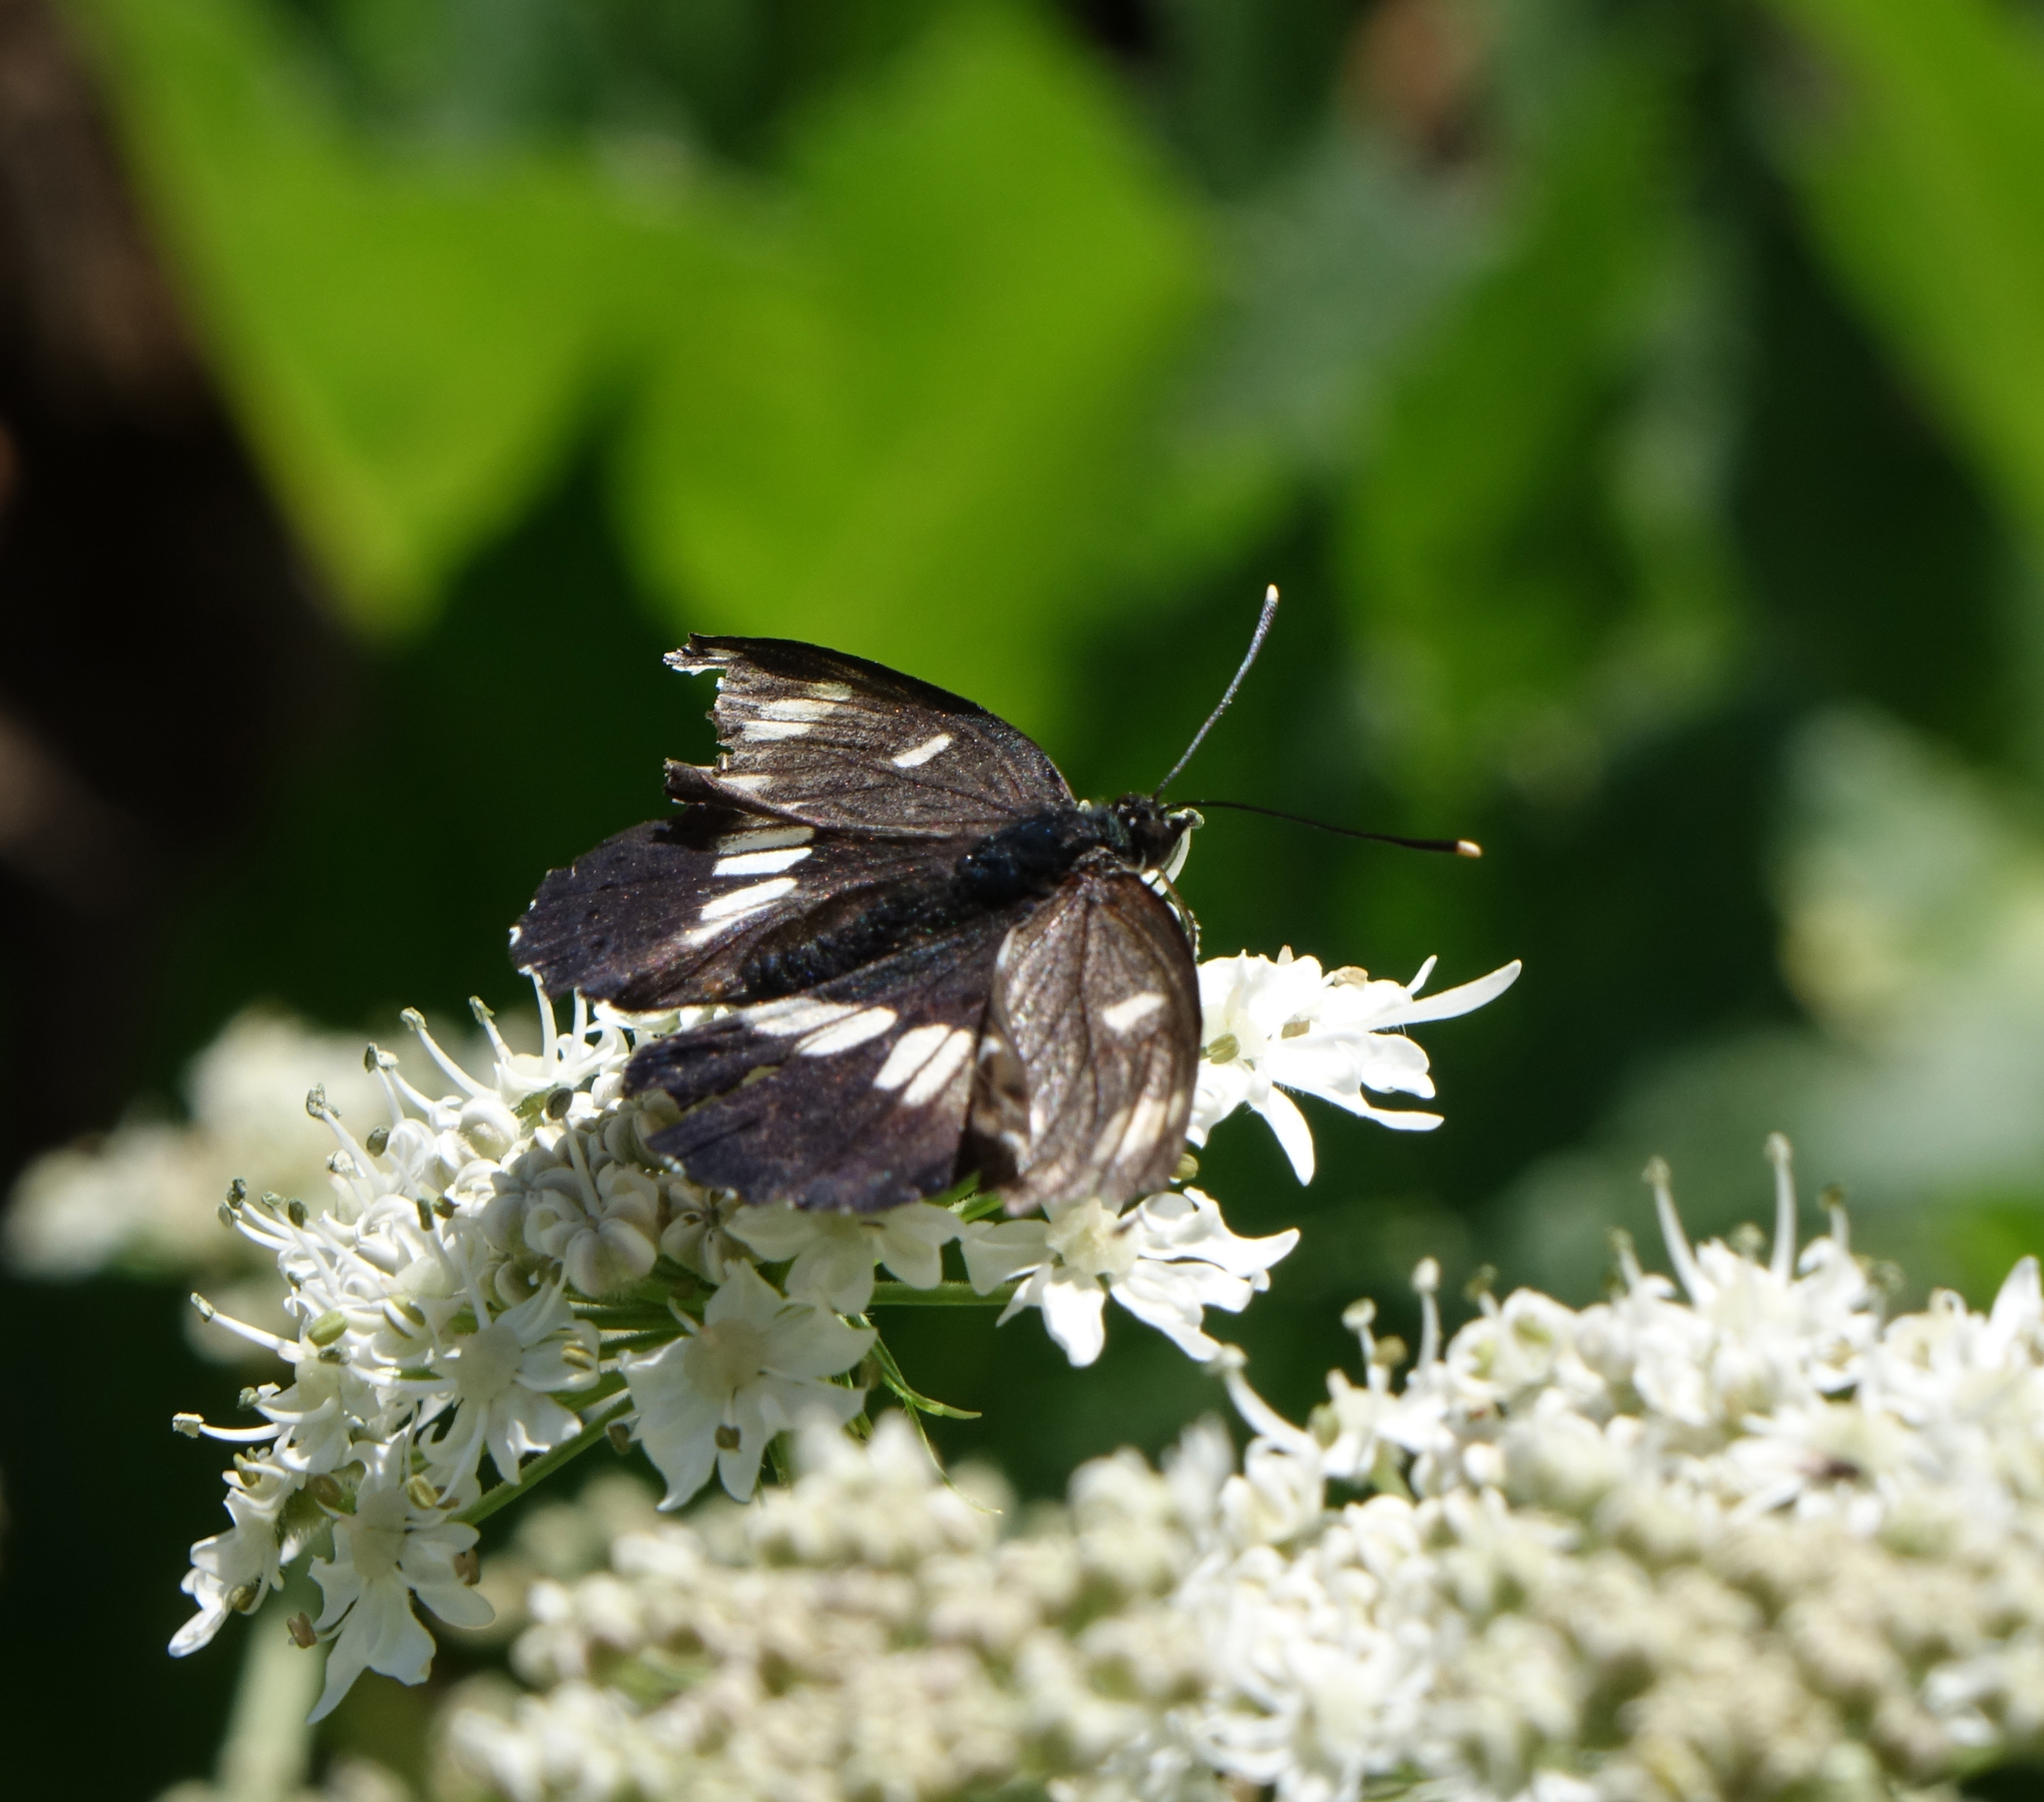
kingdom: Animalia
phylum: Arthropoda
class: Insecta
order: Lepidoptera
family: Nymphalidae
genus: Limenitis
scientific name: Limenitis reducta
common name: Southern white admiral
